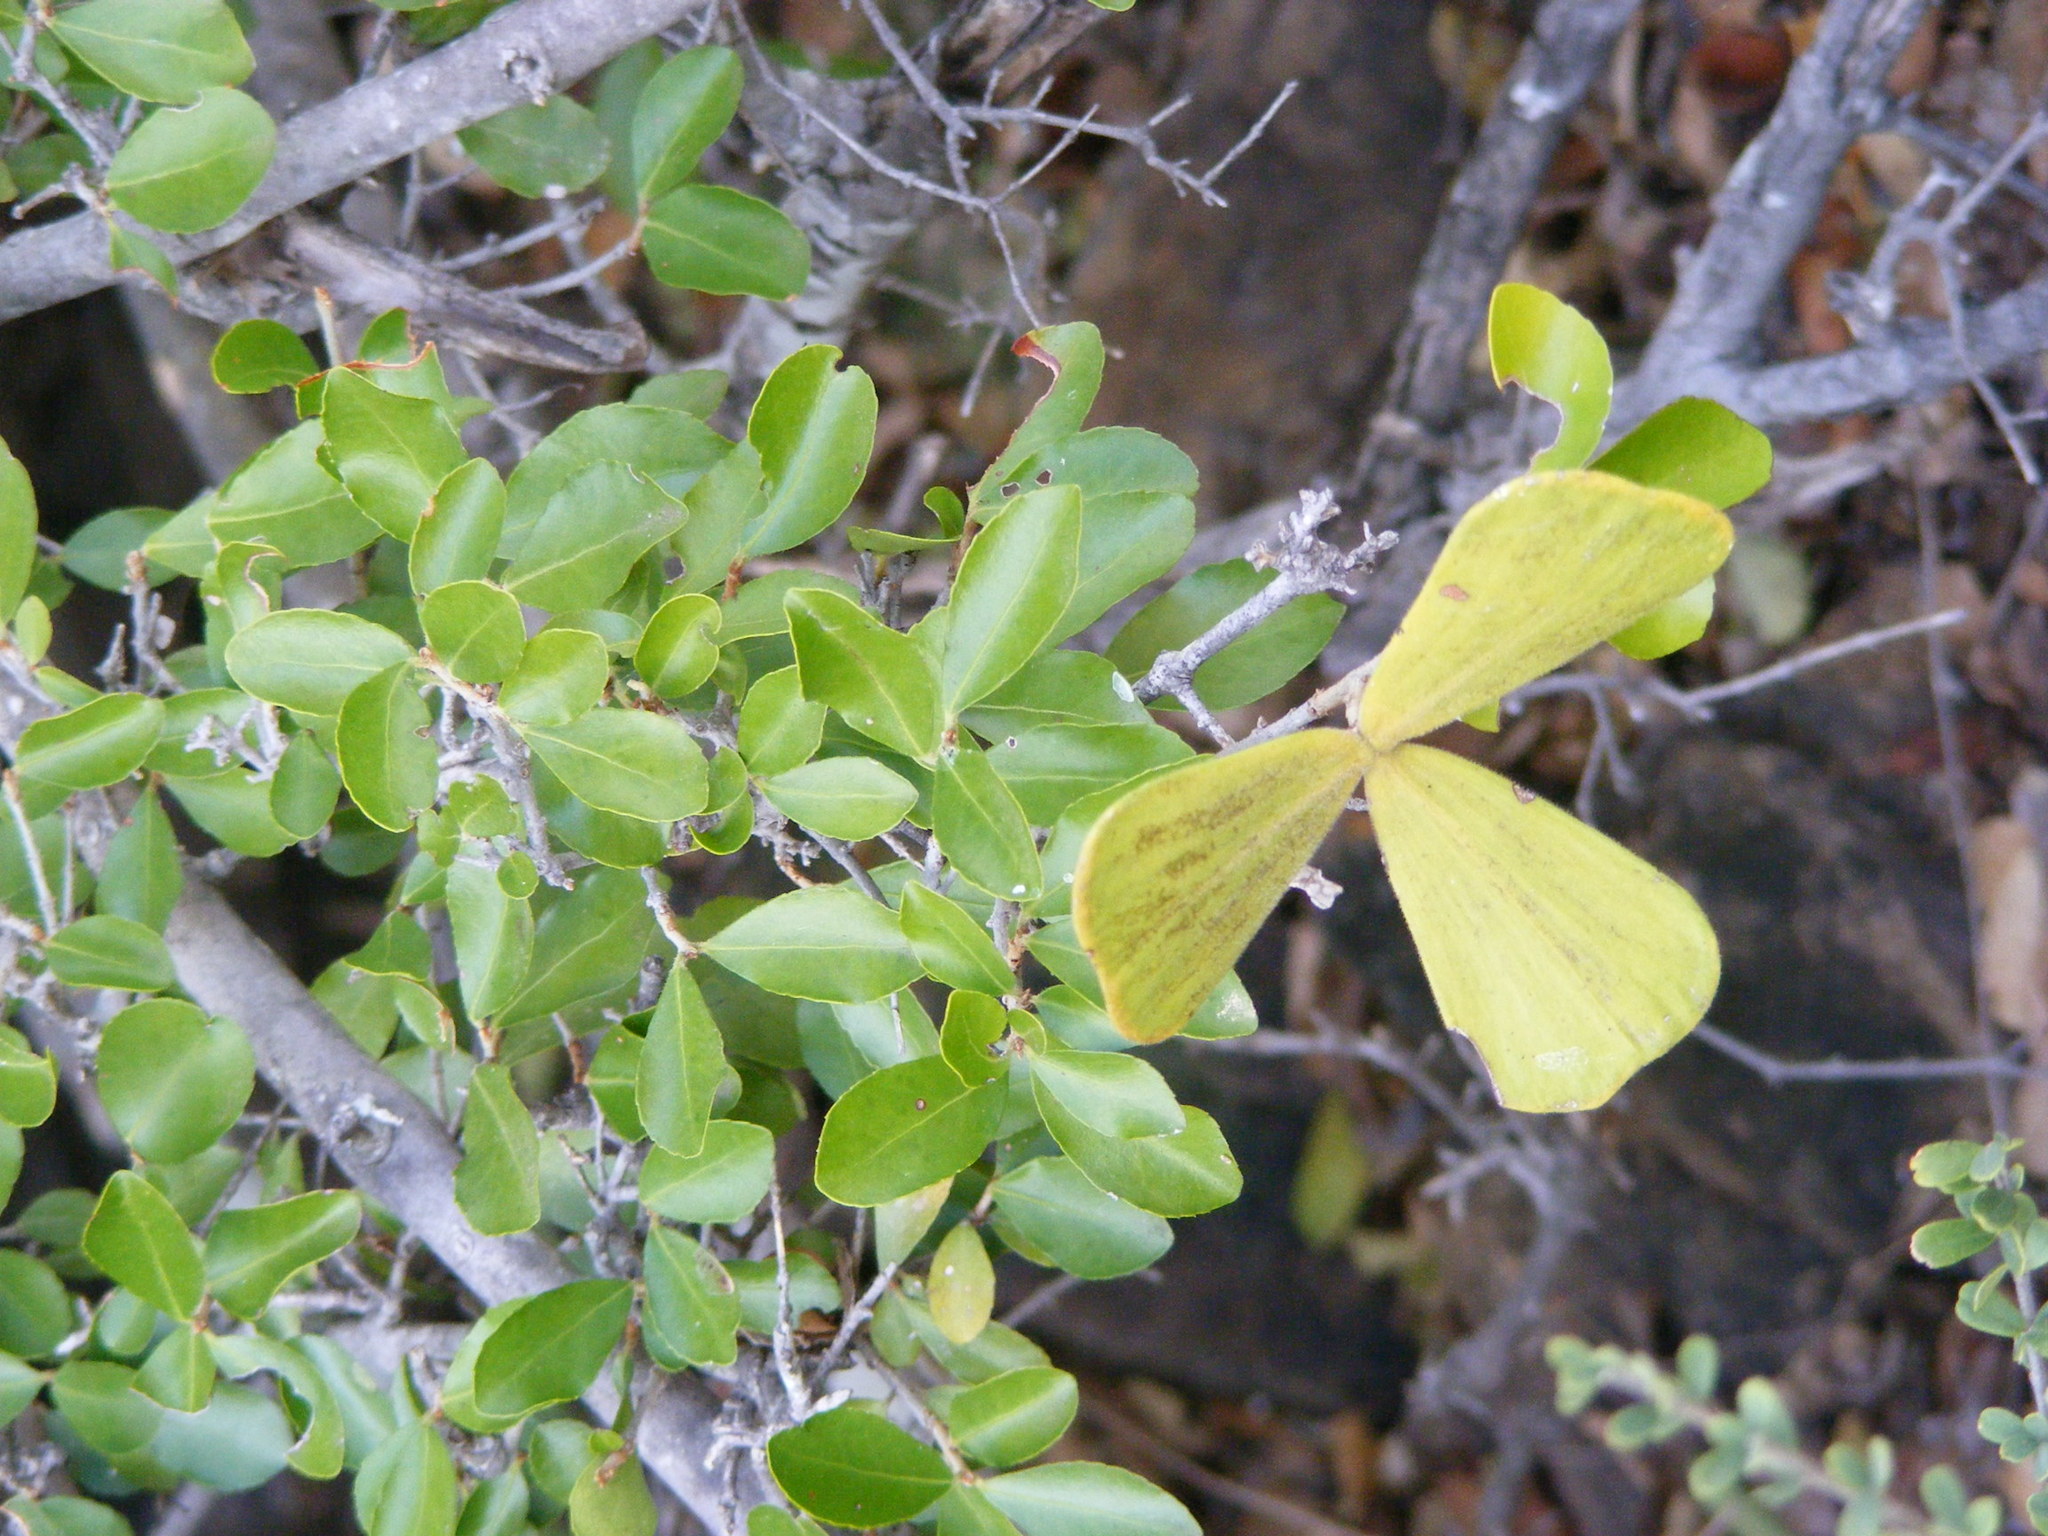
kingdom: Plantae
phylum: Tracheophyta
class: Magnoliopsida
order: Celastrales
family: Celastraceae
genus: Loeseneriella
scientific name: Loeseneriella crenata
